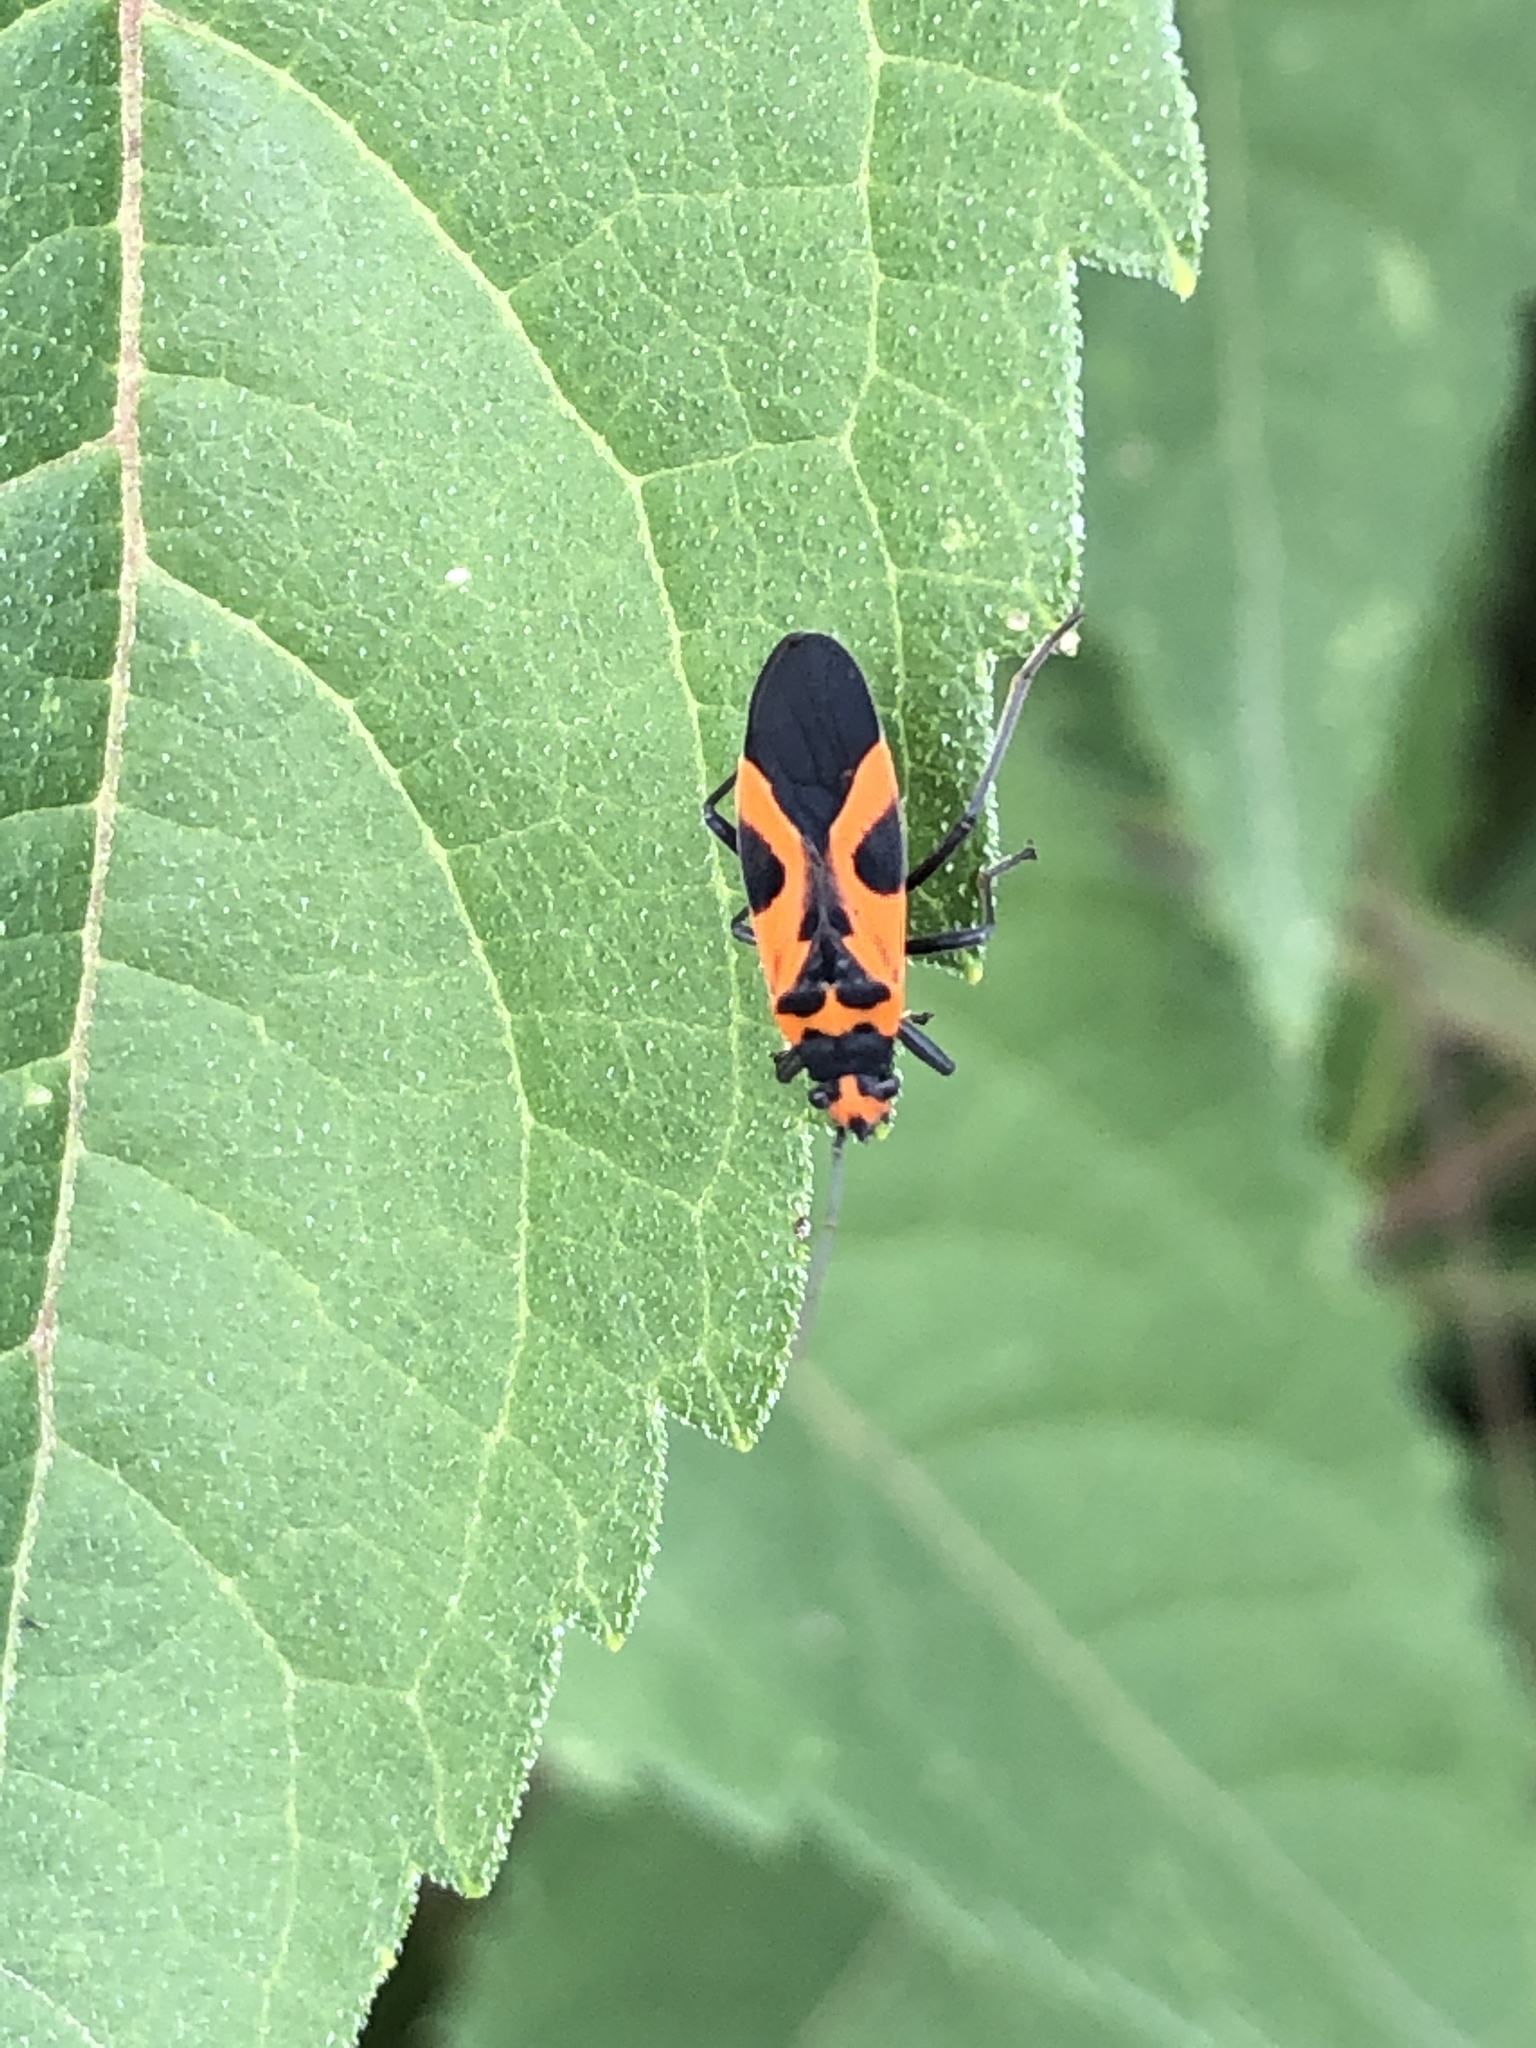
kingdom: Animalia
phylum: Arthropoda
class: Insecta
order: Hemiptera
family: Lygaeidae
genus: Lygaeus
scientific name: Lygaeus turcicus
